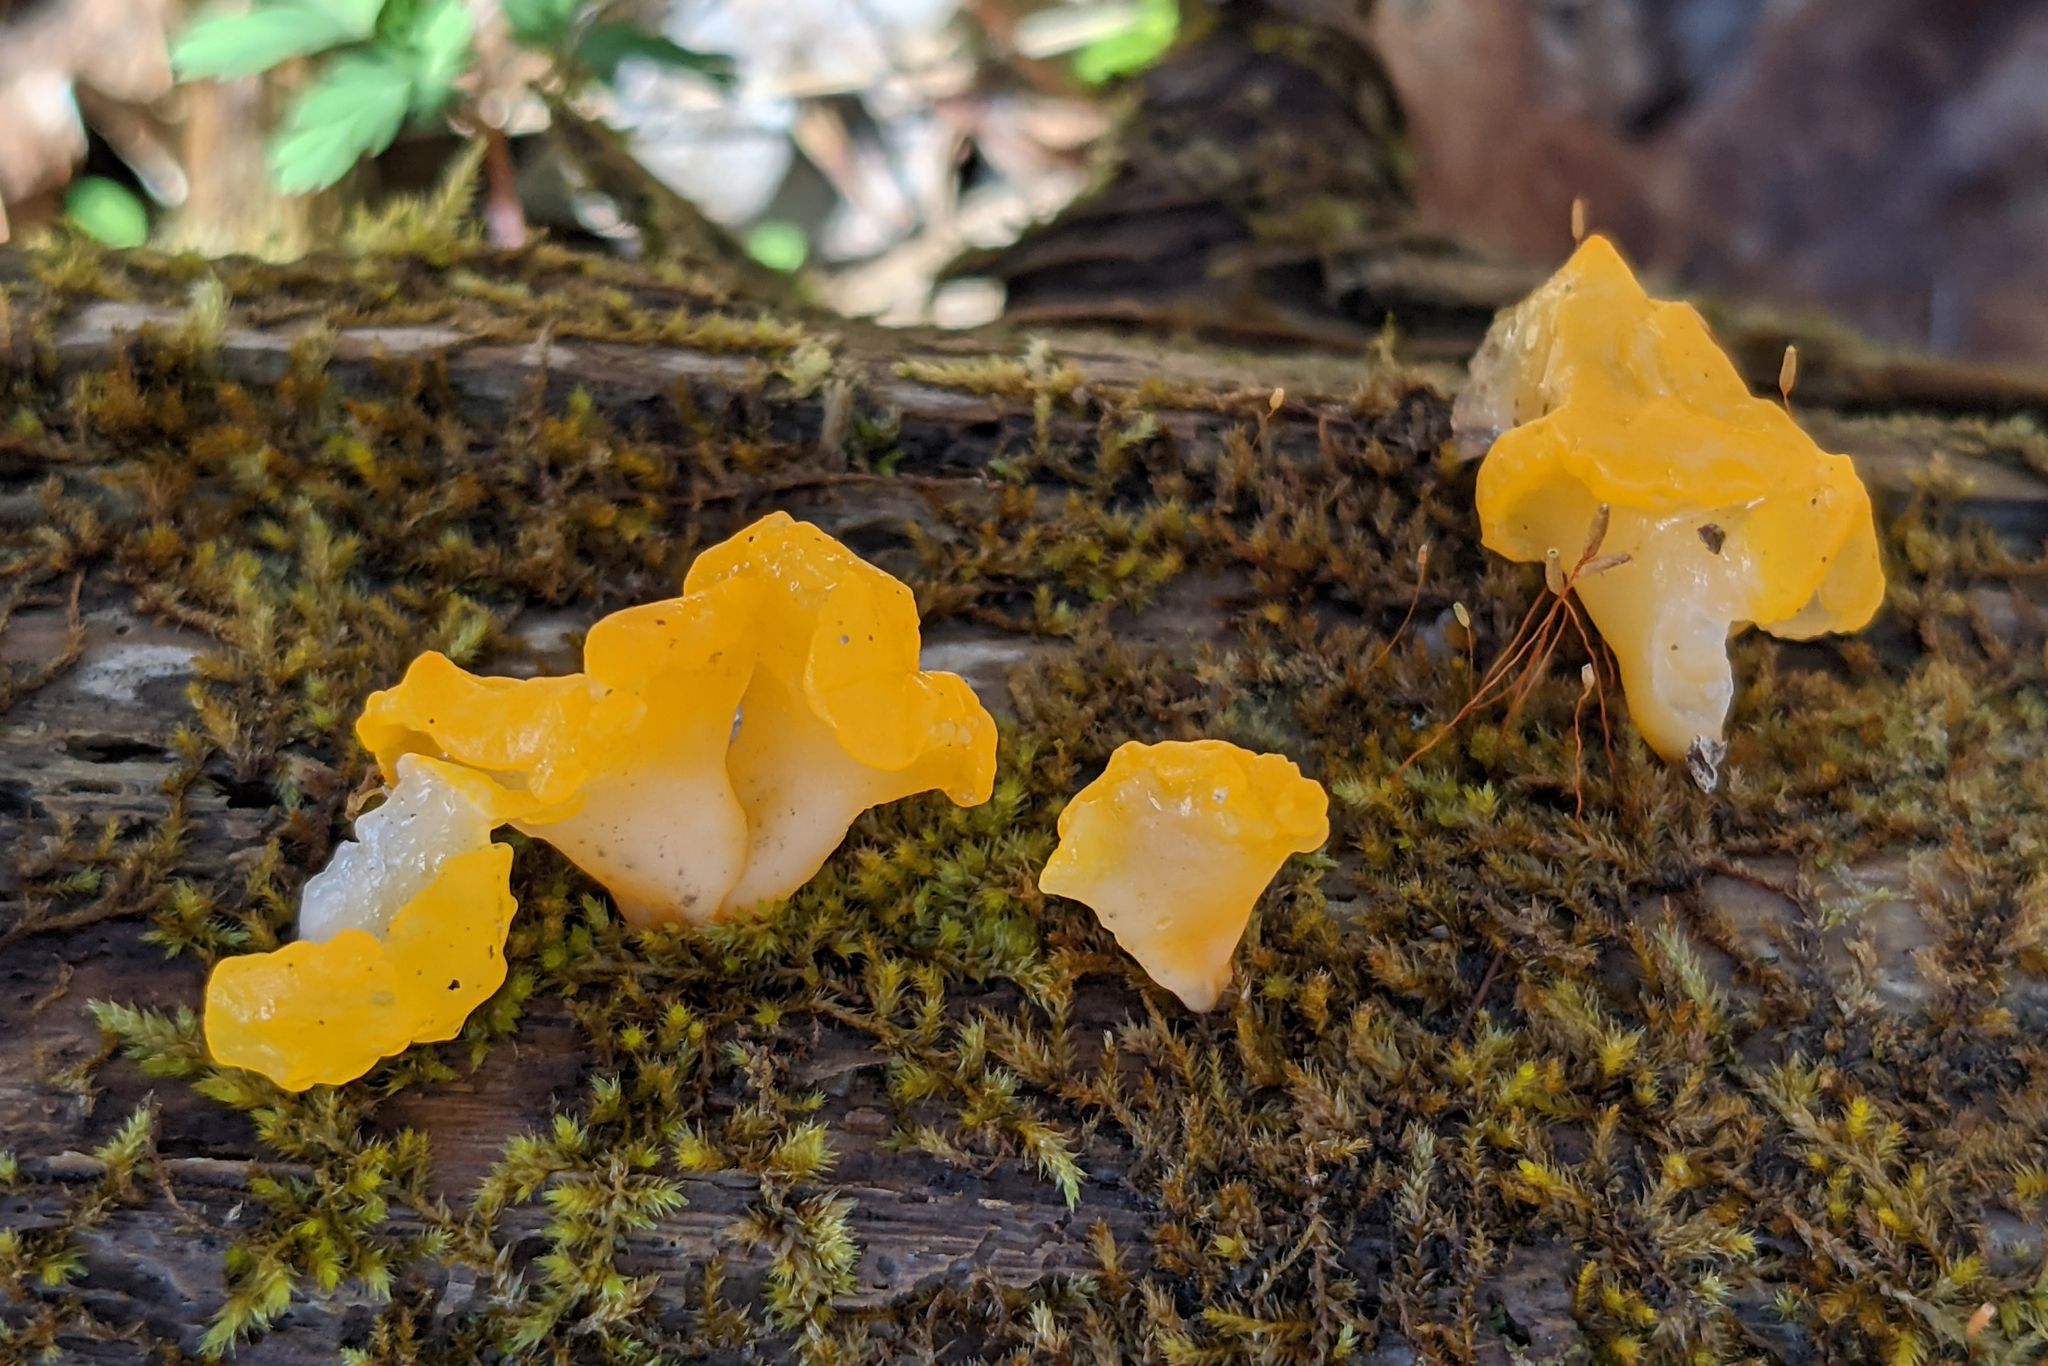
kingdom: Fungi
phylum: Basidiomycota
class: Dacrymycetes
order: Dacrymycetales
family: Dacrymycetaceae
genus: Dacrymyces
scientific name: Dacrymyces chrysospermus
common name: Orange jelly spot
